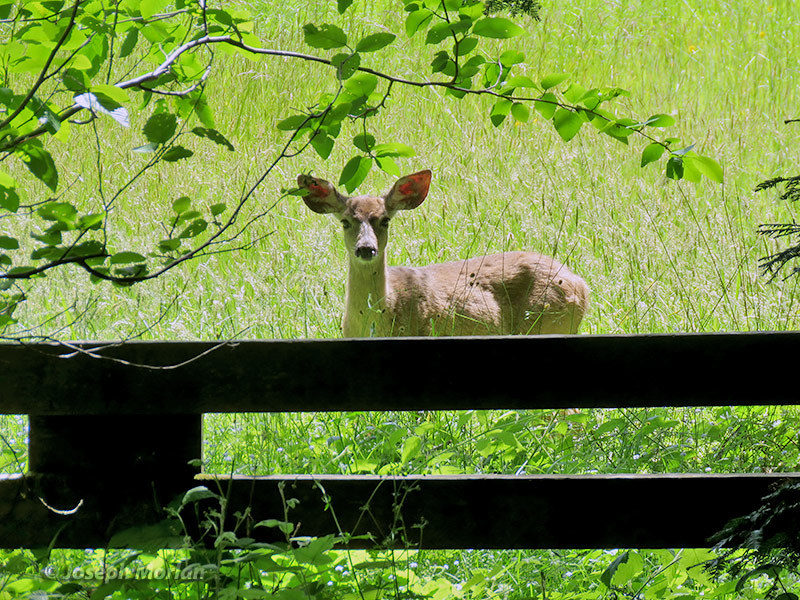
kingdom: Animalia
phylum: Chordata
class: Mammalia
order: Artiodactyla
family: Cervidae
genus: Odocoileus
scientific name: Odocoileus hemionus
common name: Mule deer
